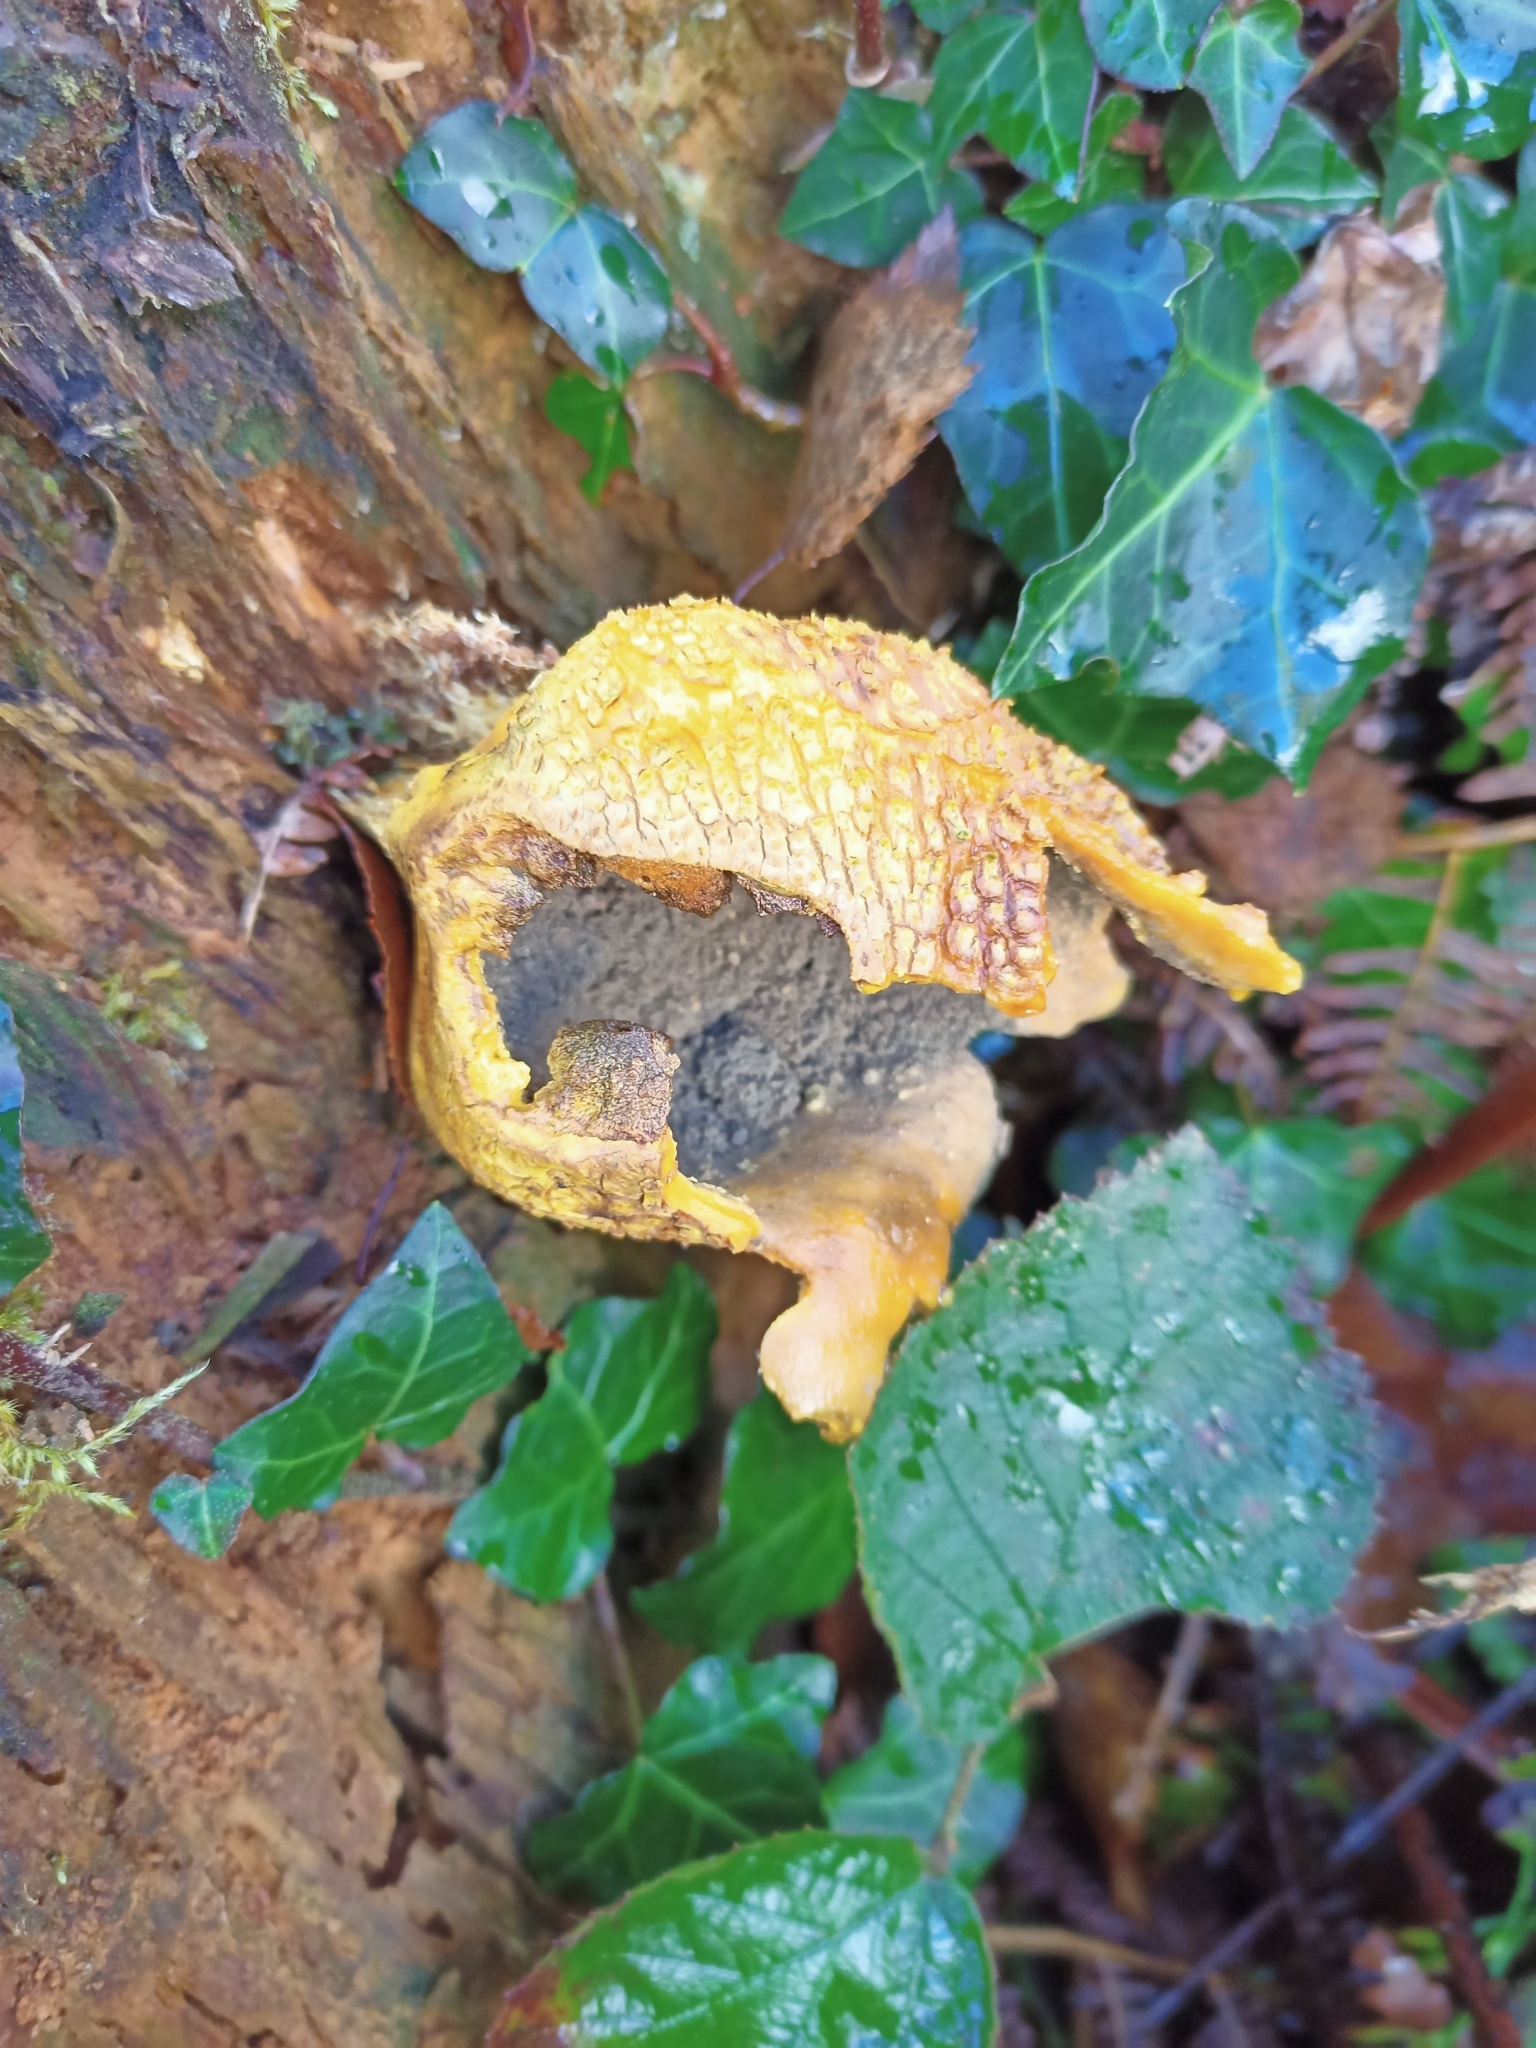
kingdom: Fungi
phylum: Basidiomycota
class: Agaricomycetes
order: Boletales
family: Sclerodermataceae
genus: Scleroderma
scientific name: Scleroderma citrinum
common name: Common earthball
